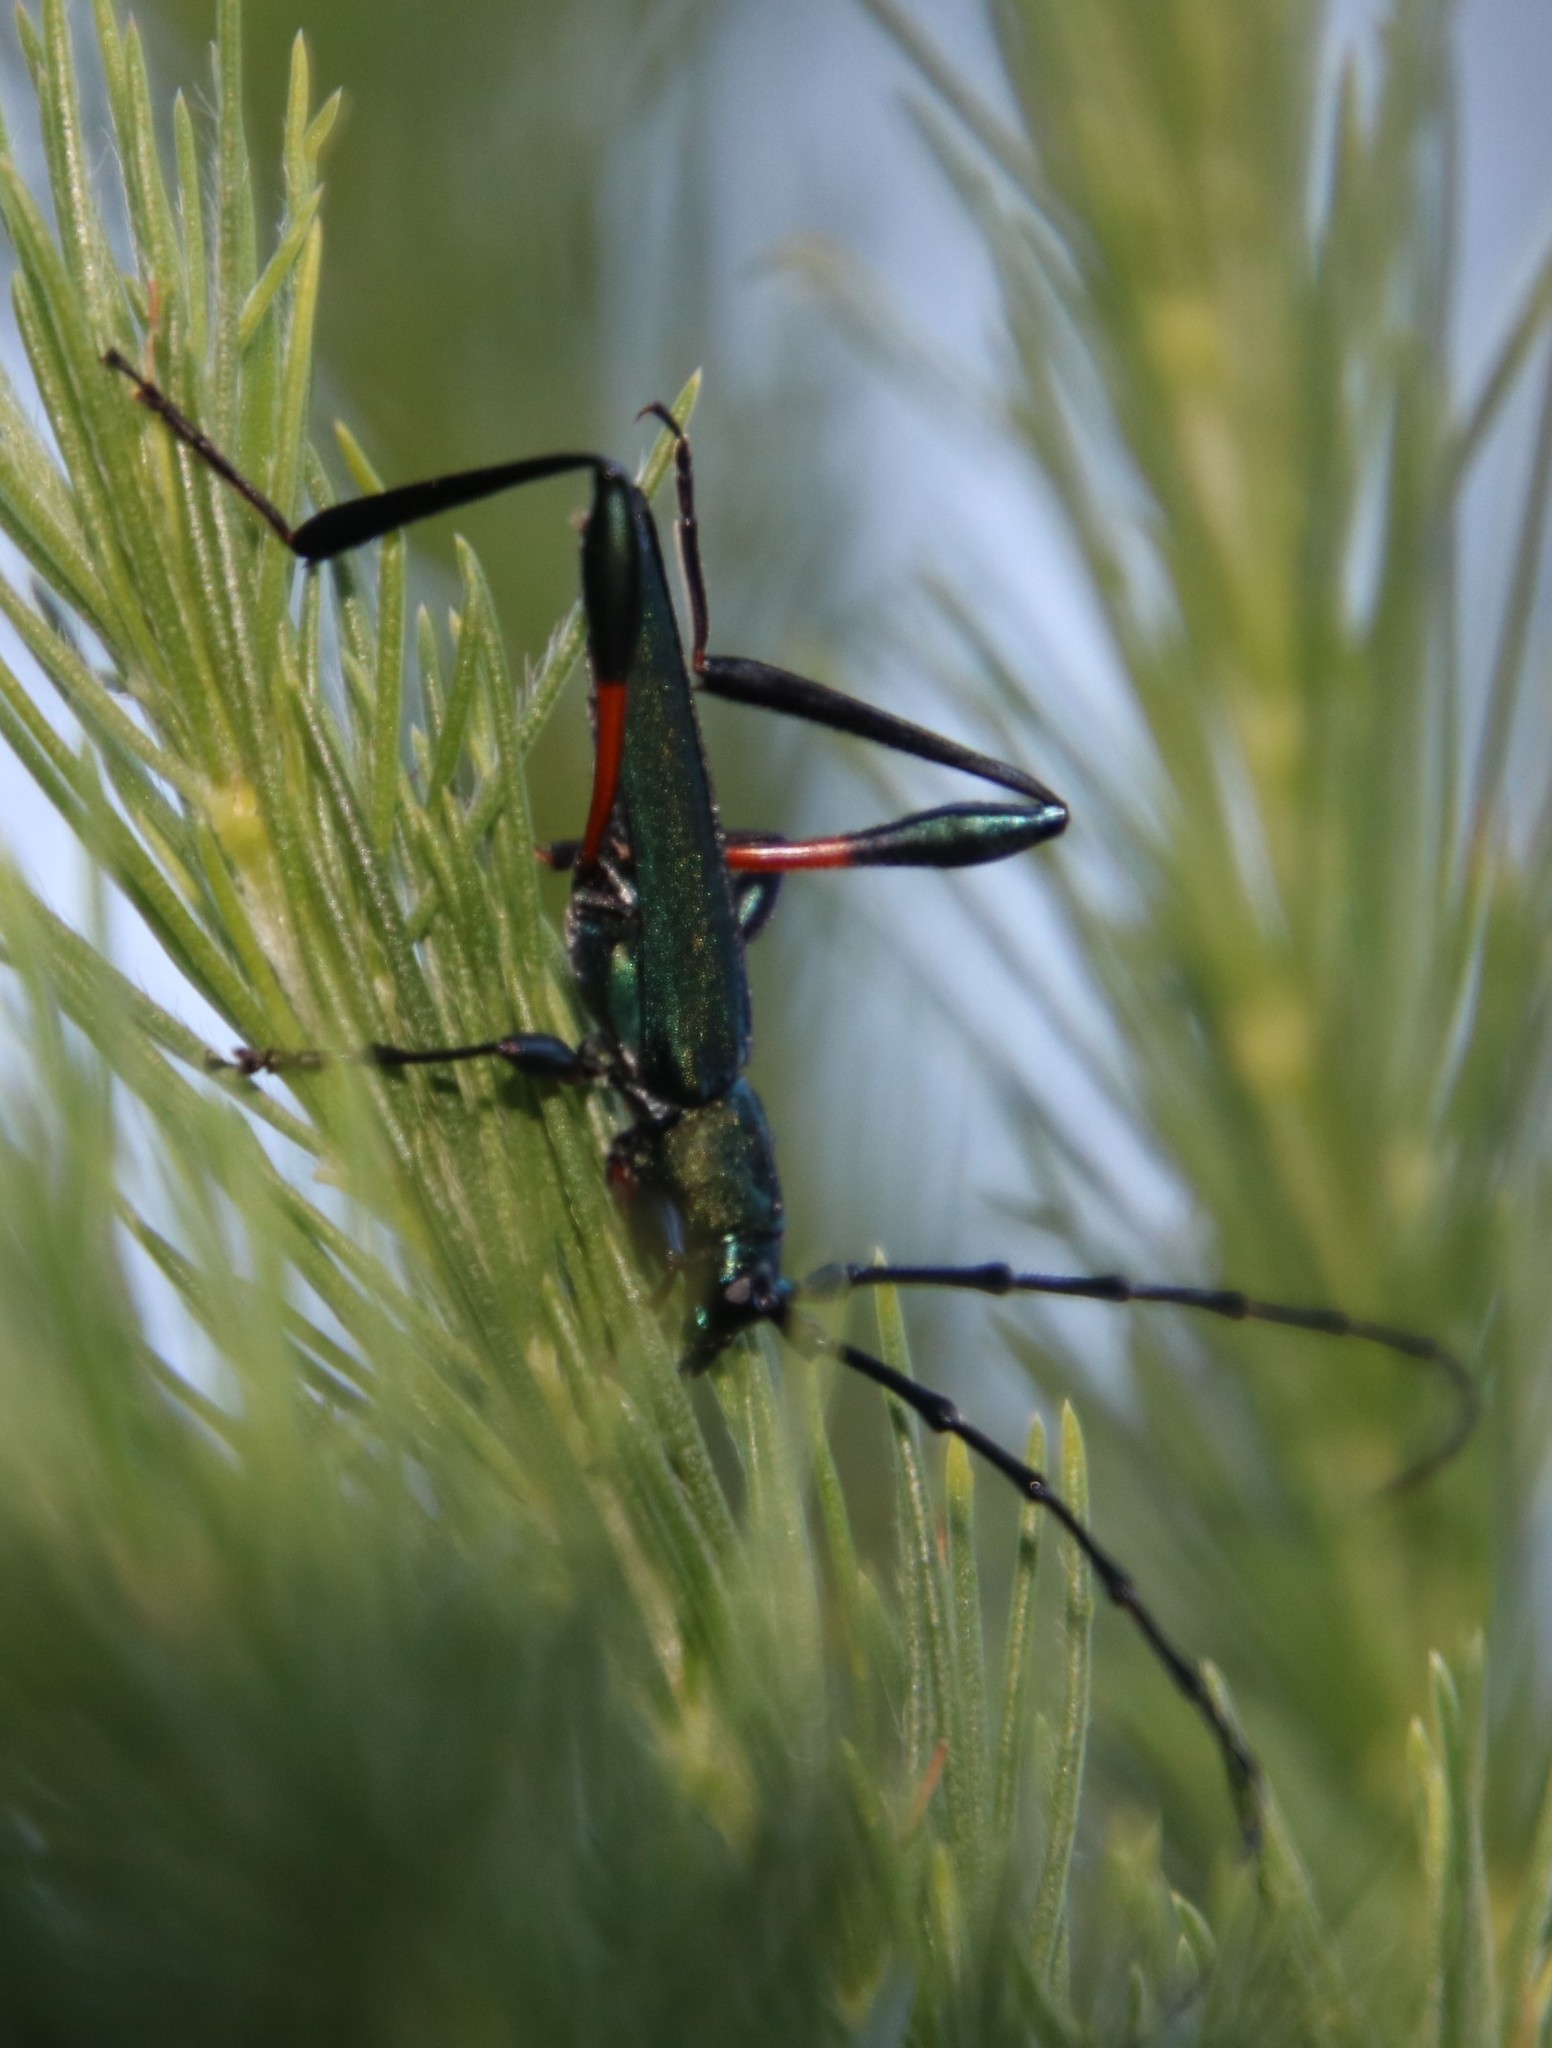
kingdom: Animalia
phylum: Arthropoda
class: Insecta
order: Coleoptera
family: Cerambycidae
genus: Litopus
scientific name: Litopus latipes
